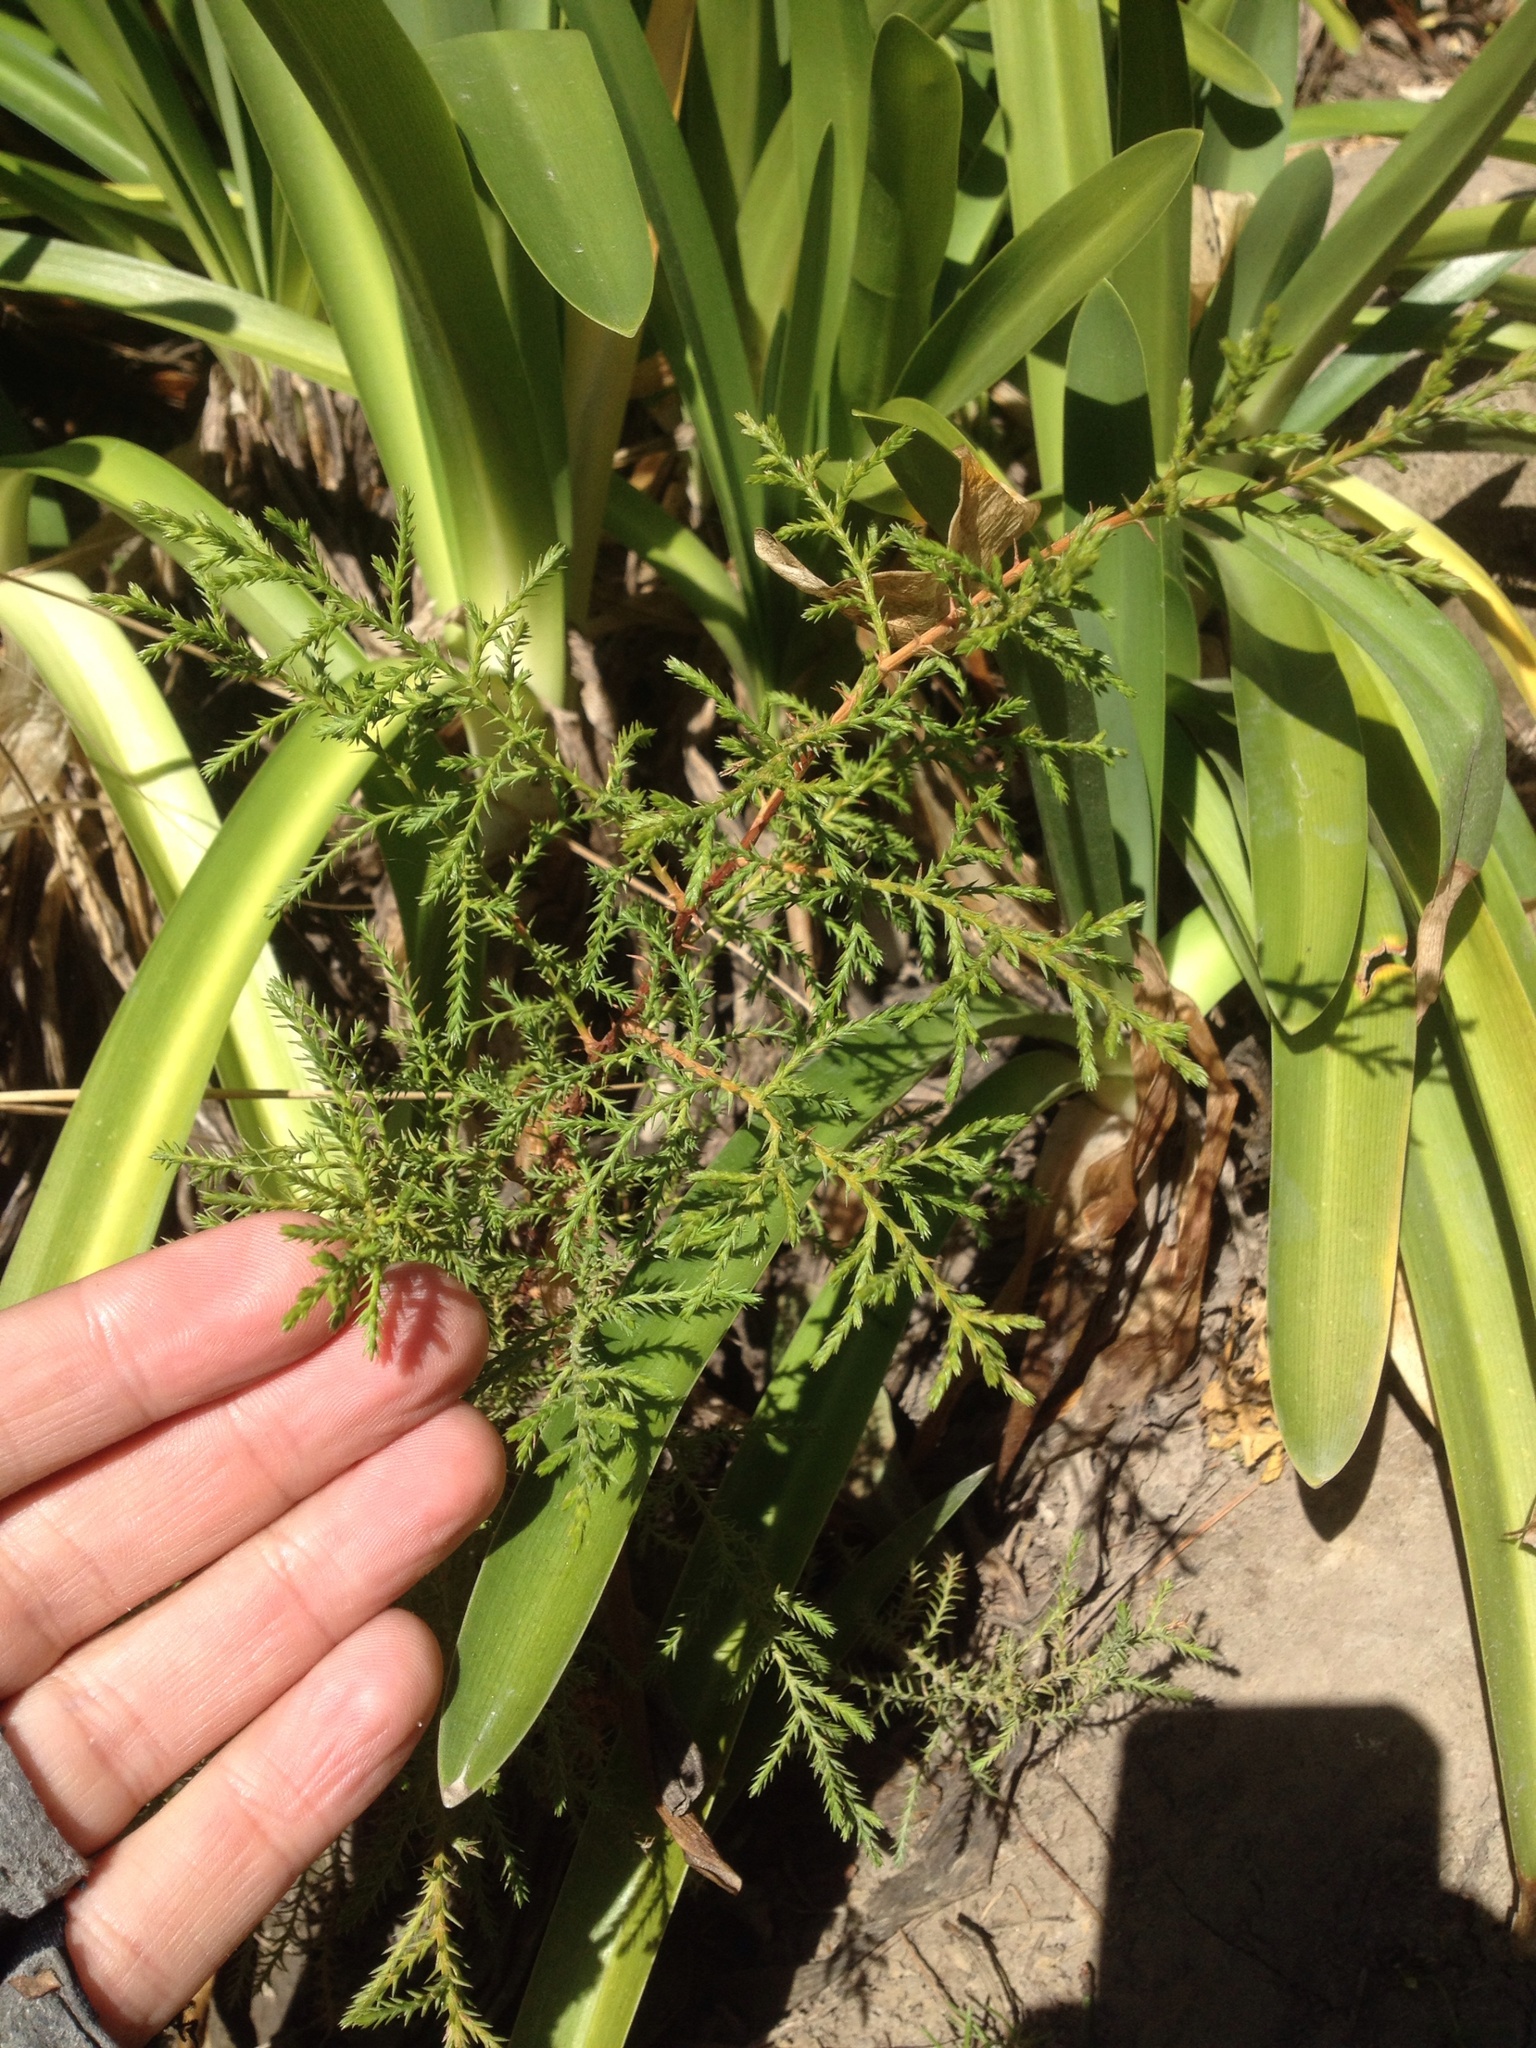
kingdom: Plantae
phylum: Tracheophyta
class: Pinopsida
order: Pinales
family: Cupressaceae
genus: Cupressus
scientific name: Cupressus macrocarpa
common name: Monterey cypress
